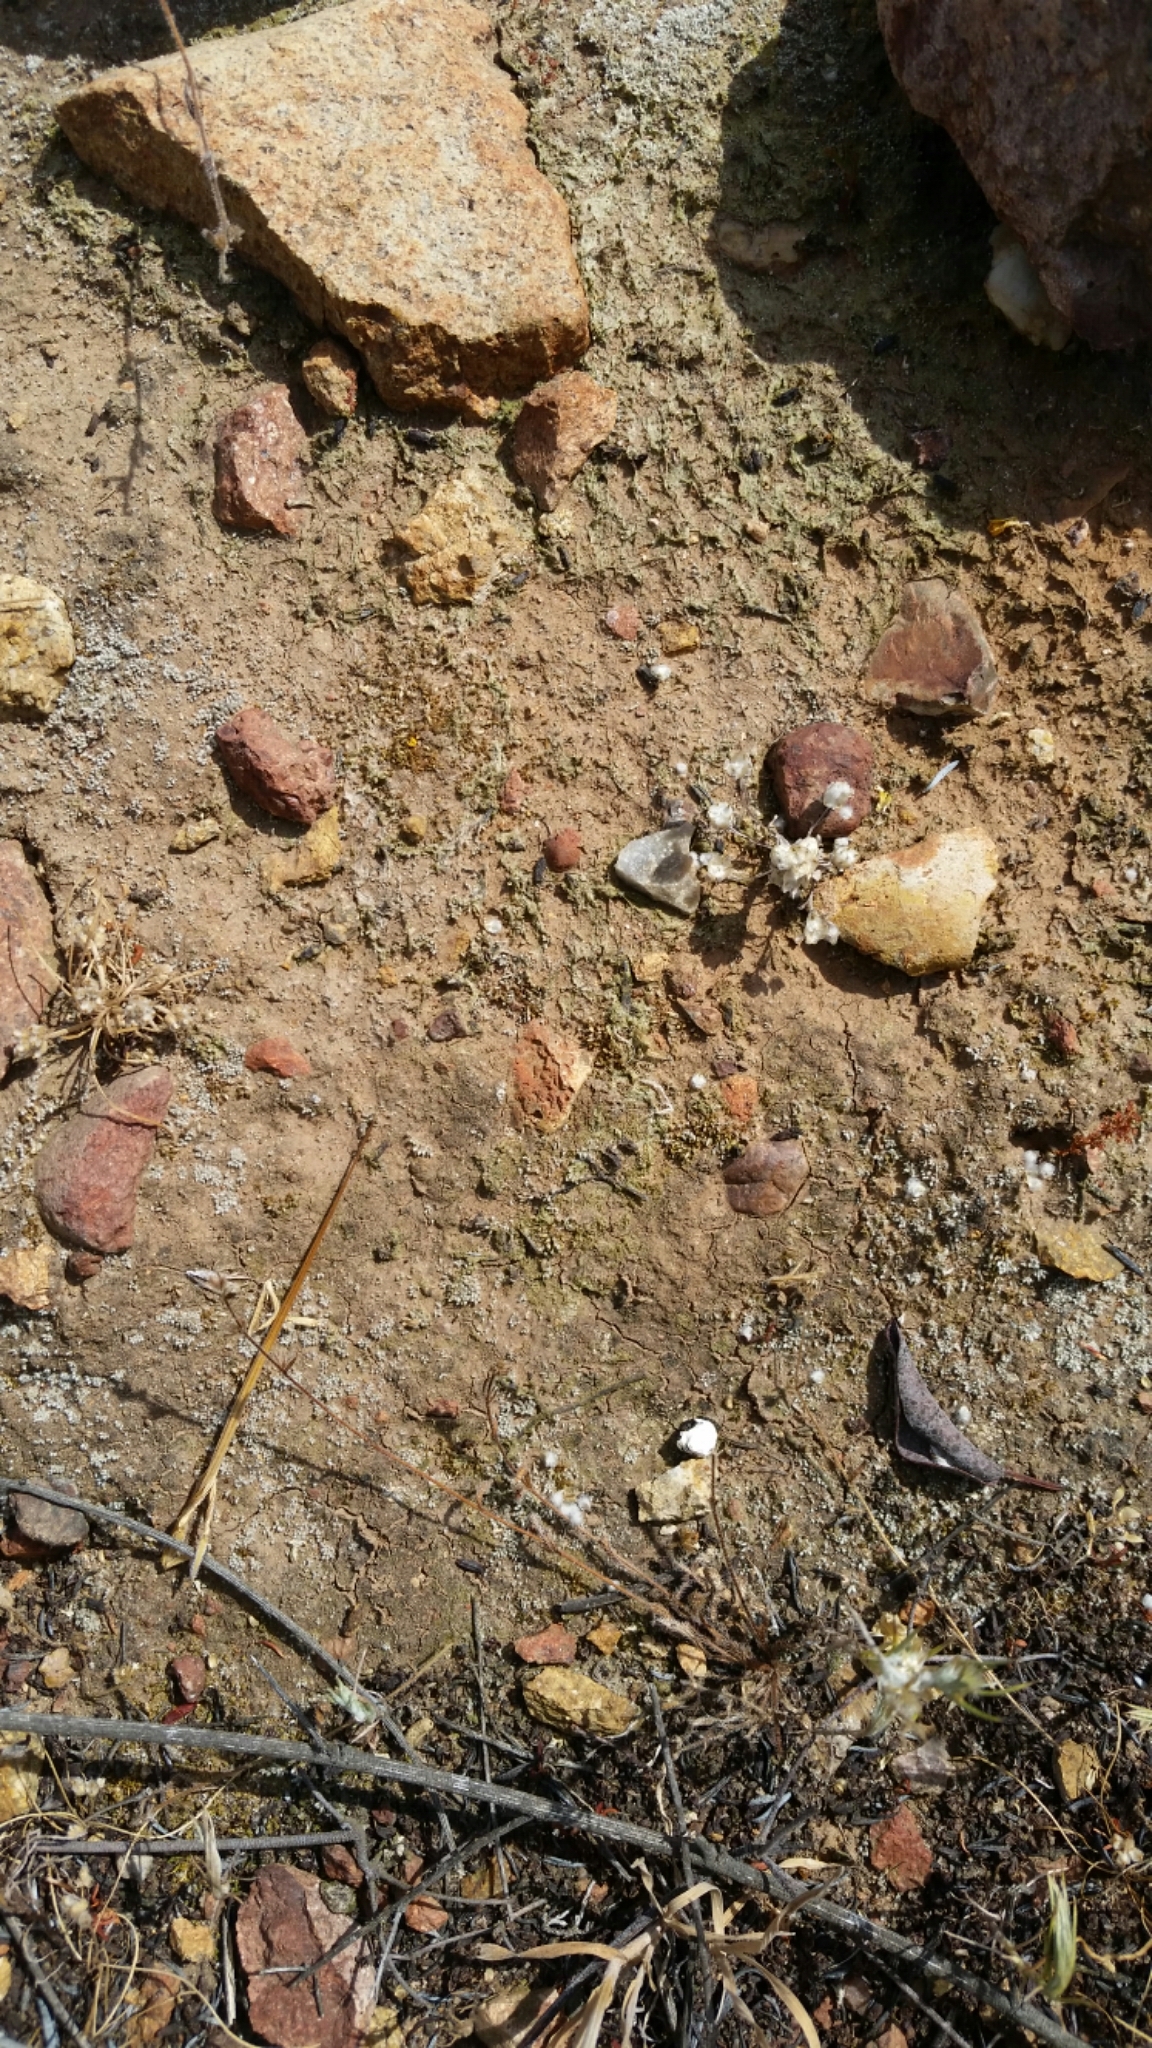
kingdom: Plantae
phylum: Tracheophyta
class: Magnoliopsida
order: Asterales
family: Asteraceae
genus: Stylocline
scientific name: Stylocline gnaphaloides
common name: Everlasting nest-straw
